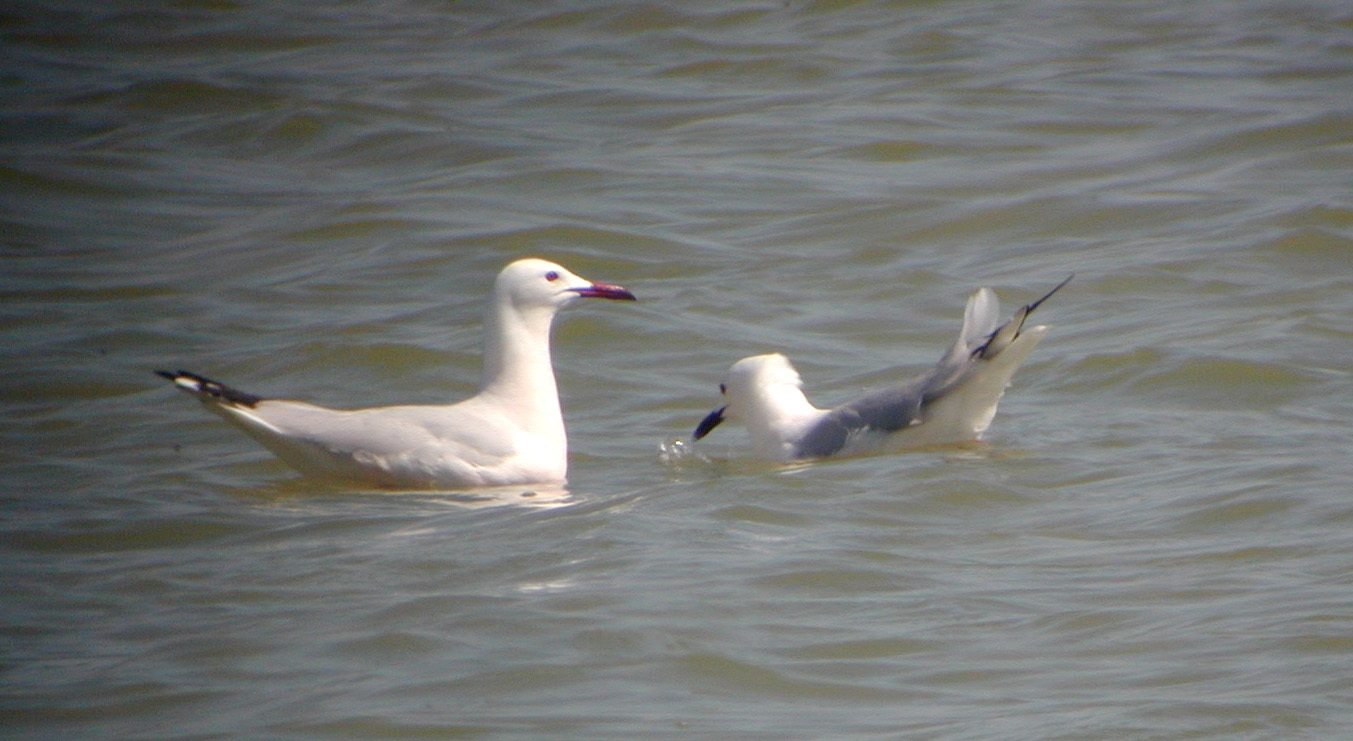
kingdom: Animalia
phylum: Chordata
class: Aves
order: Charadriiformes
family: Laridae
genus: Chroicocephalus
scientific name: Chroicocephalus genei
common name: Slender-billed gull
